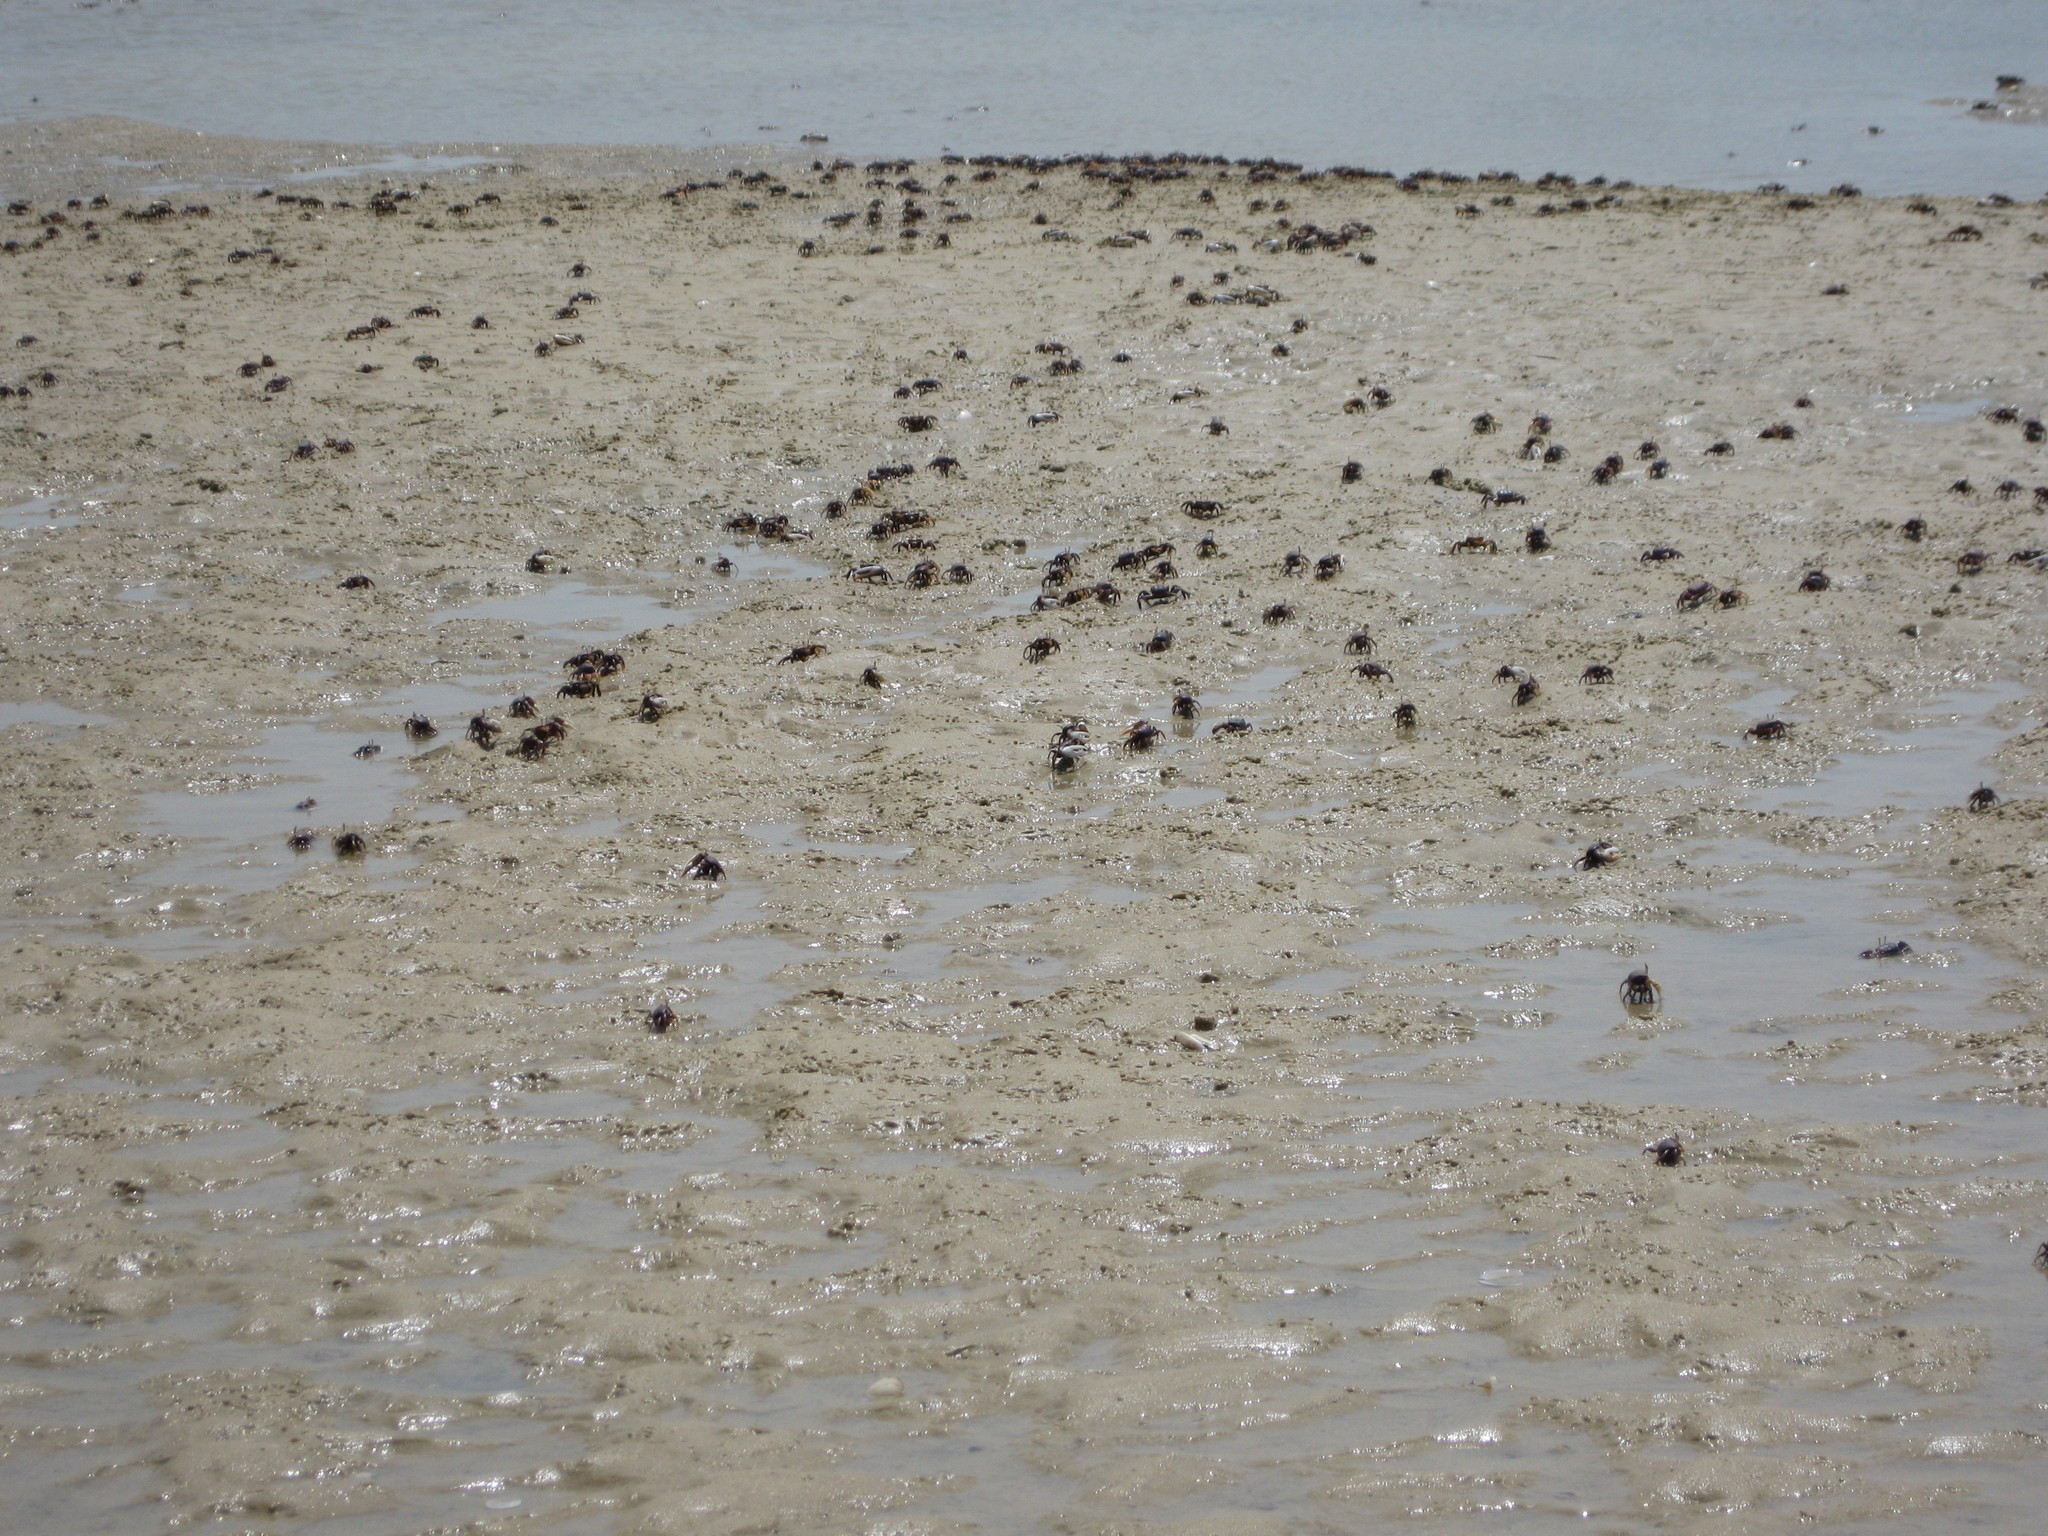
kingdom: Animalia
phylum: Arthropoda
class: Malacostraca
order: Decapoda
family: Ocypodidae
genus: Afruca
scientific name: Afruca tangeri
